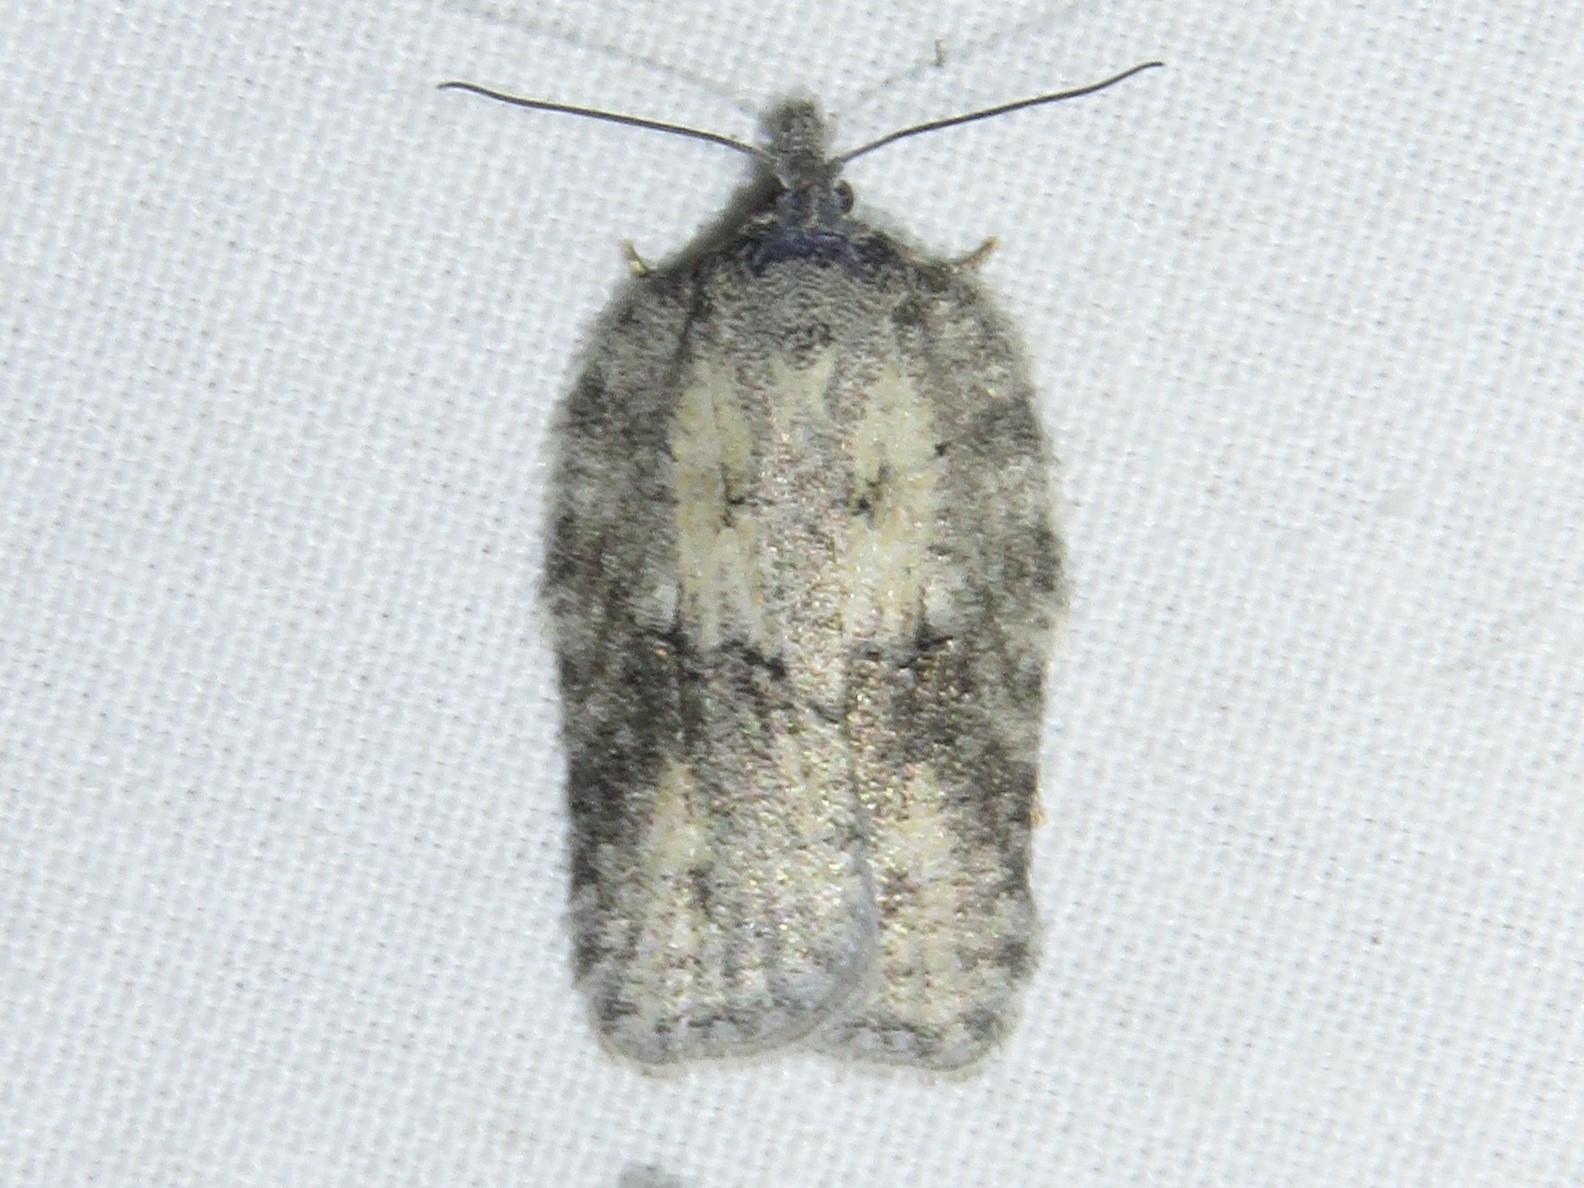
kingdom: Animalia
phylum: Arthropoda
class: Insecta
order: Lepidoptera
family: Tortricidae
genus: Acleris
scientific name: Acleris nigrolinea
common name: Black-lined acleris
